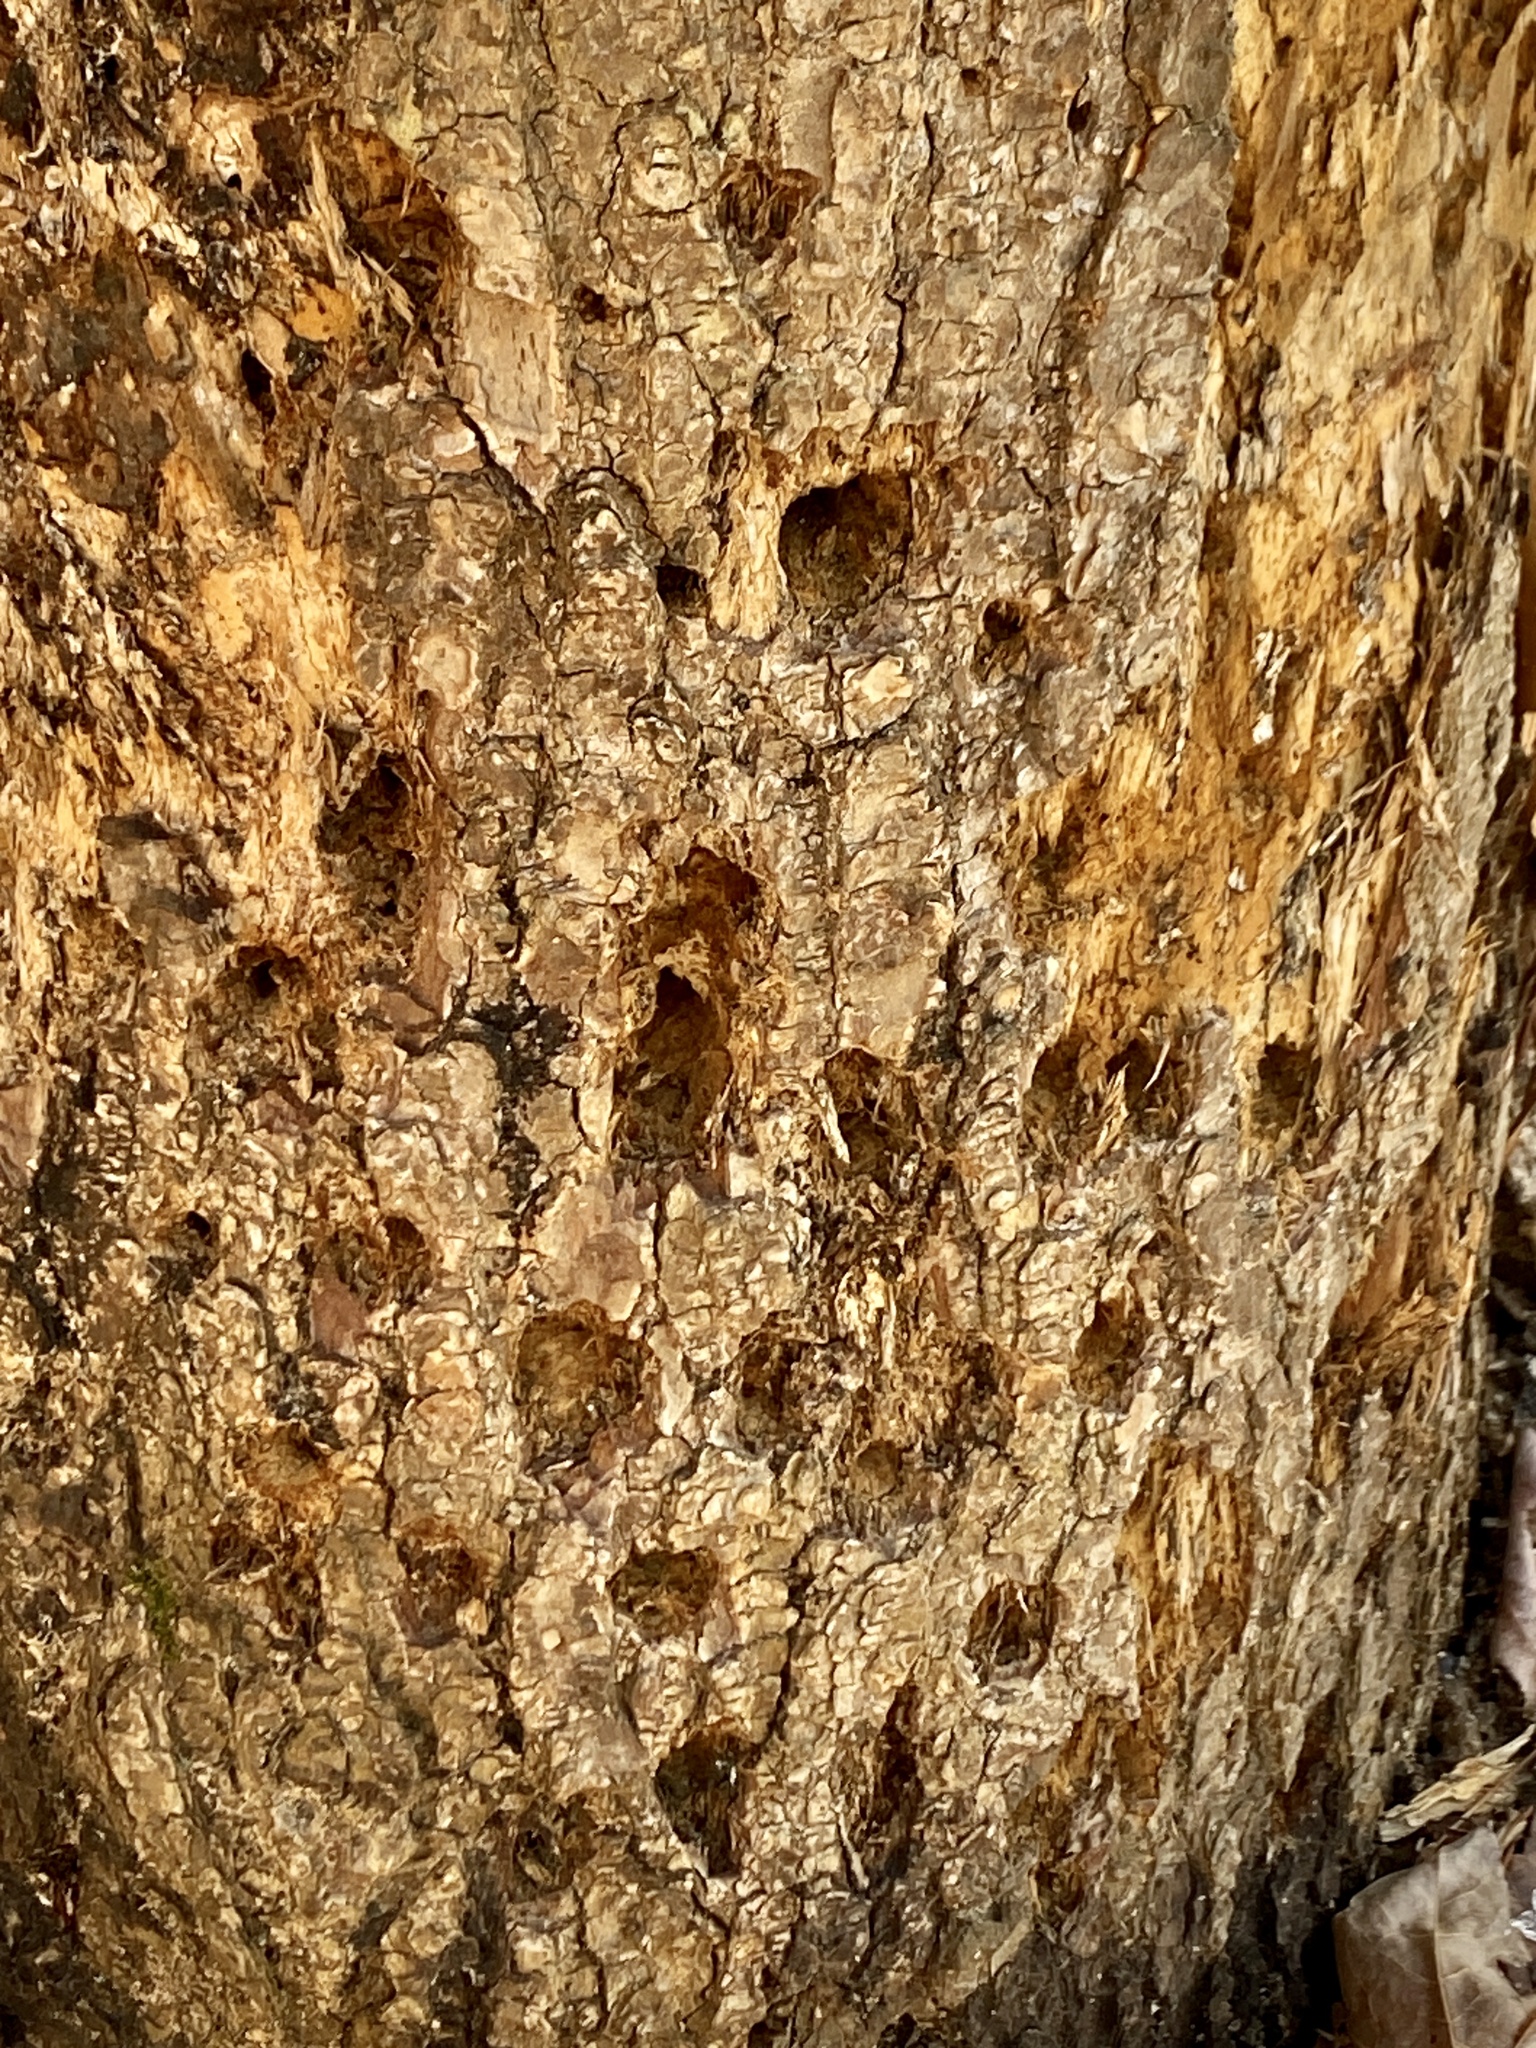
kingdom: Animalia
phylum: Chordata
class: Aves
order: Piciformes
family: Picidae
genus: Sphyrapicus
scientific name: Sphyrapicus varius
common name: Yellow-bellied sapsucker
